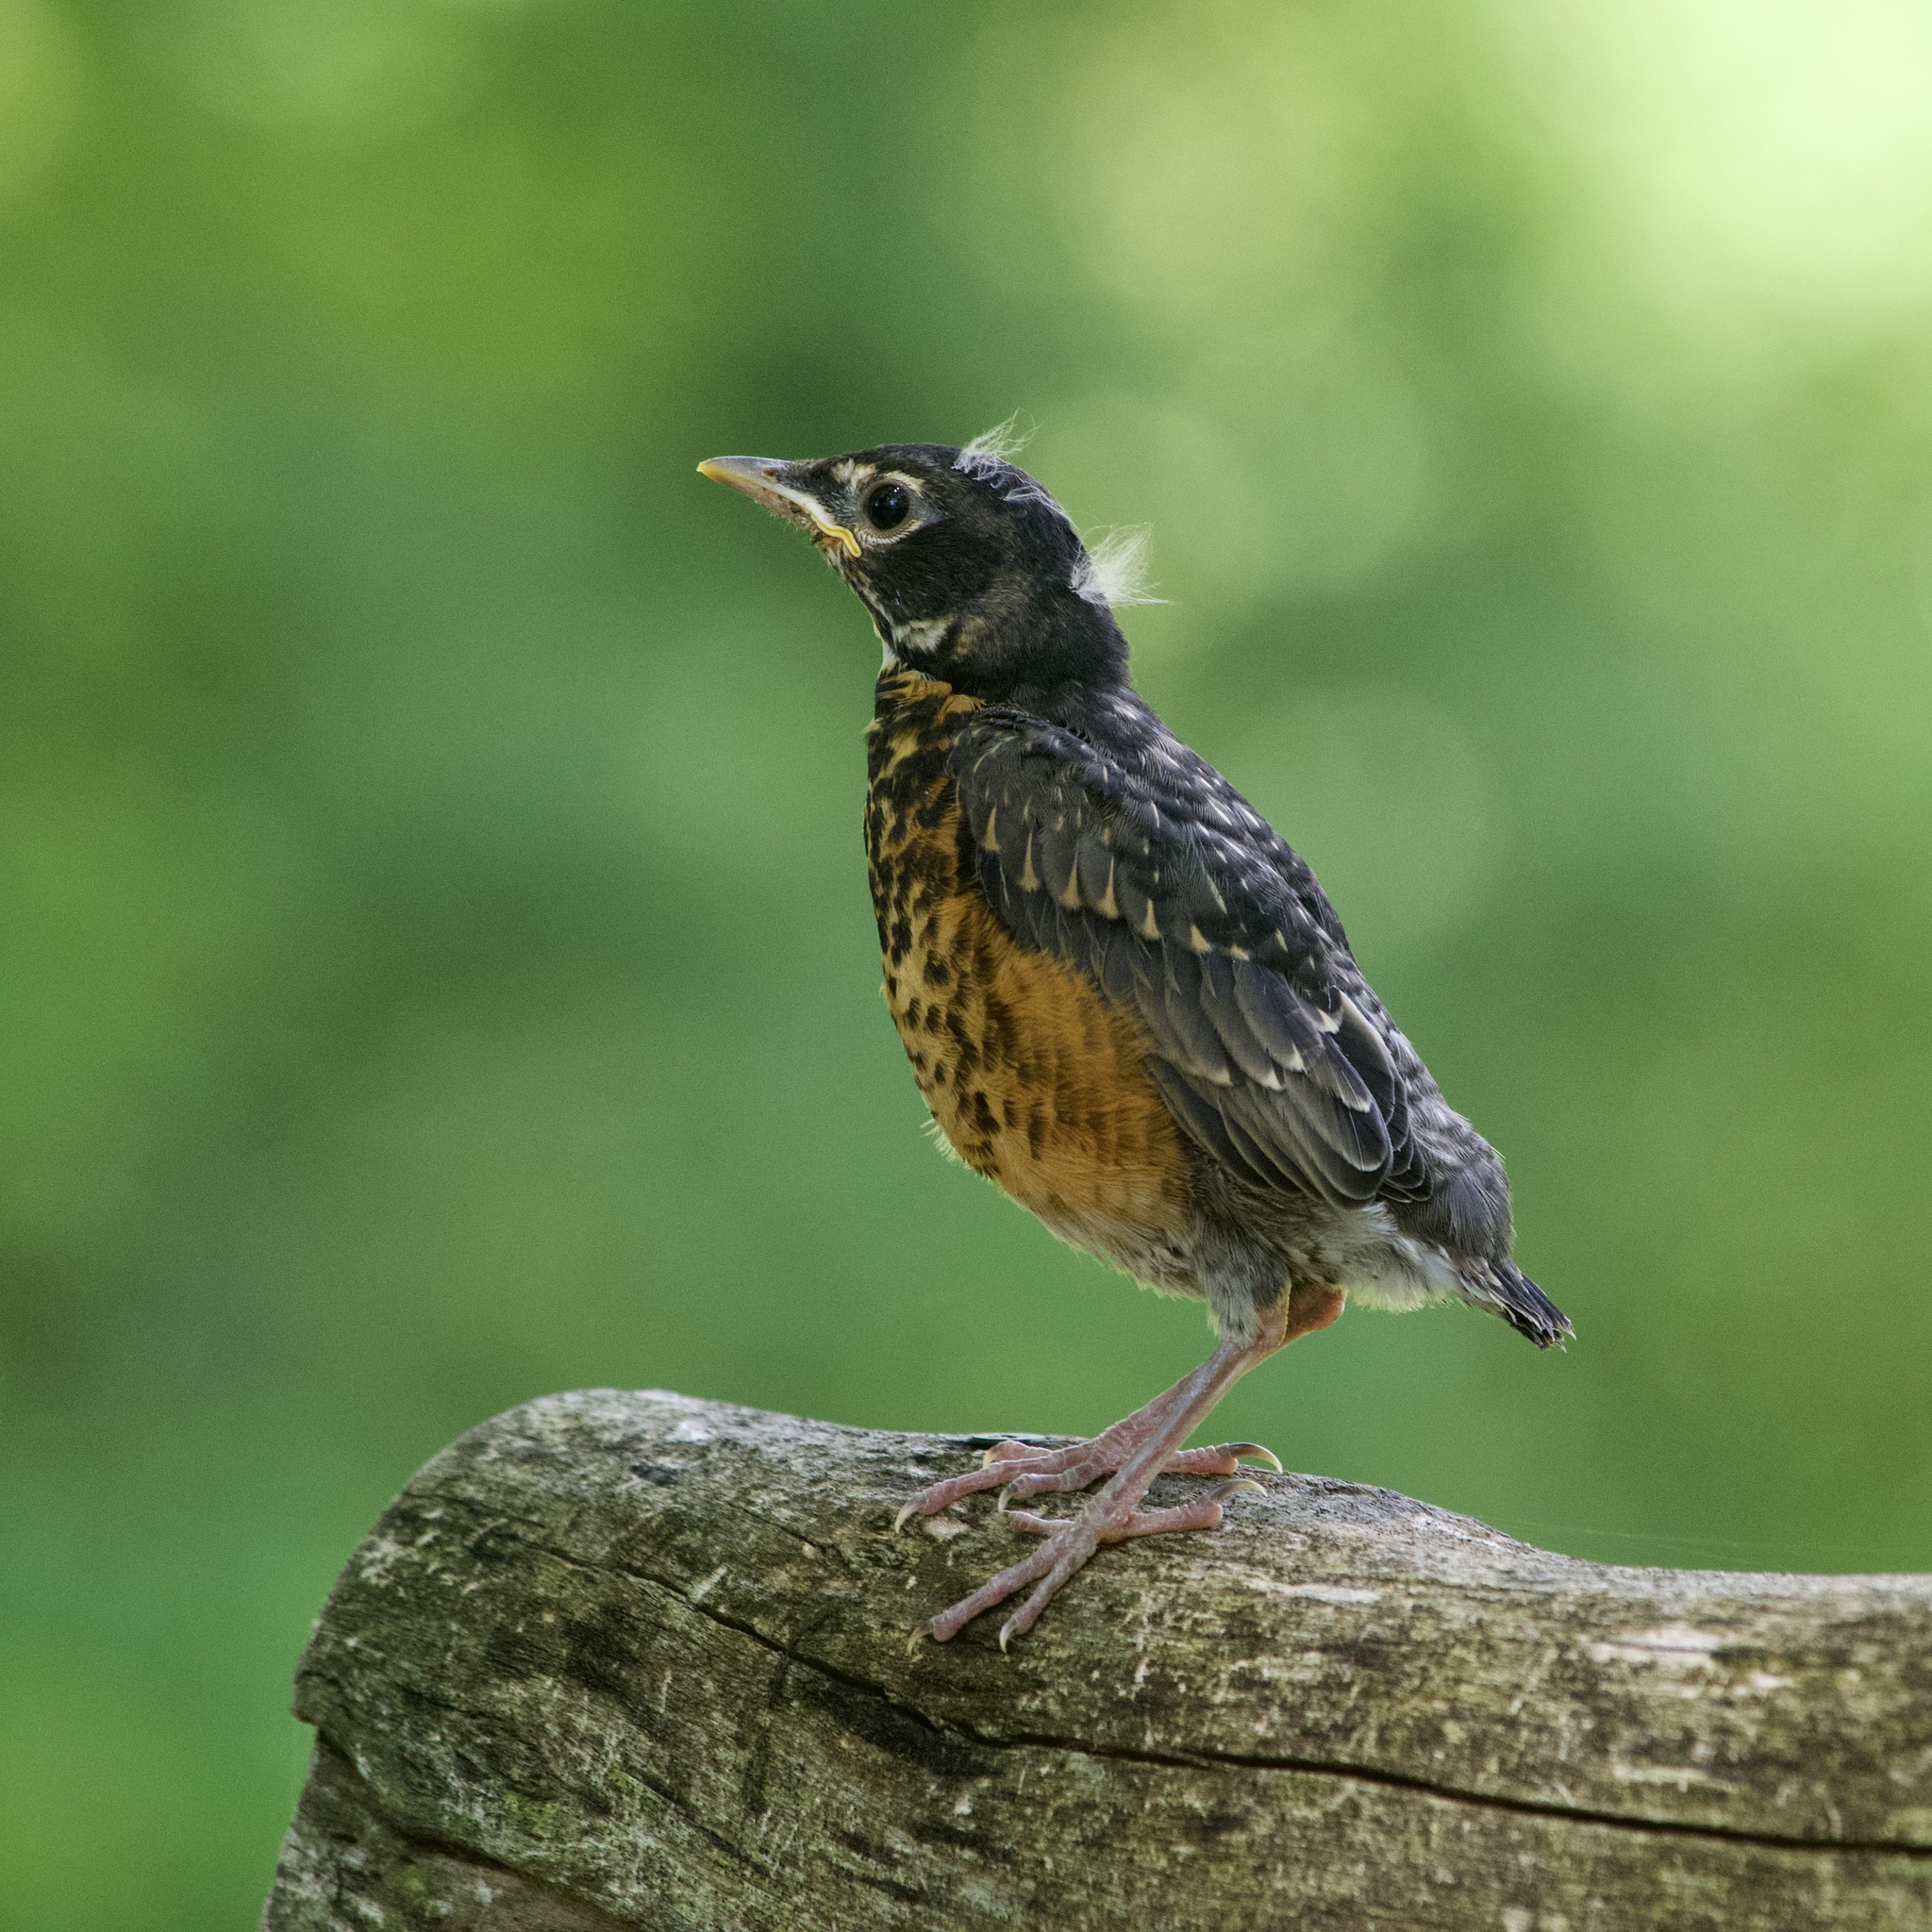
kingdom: Animalia
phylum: Chordata
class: Aves
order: Passeriformes
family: Turdidae
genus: Turdus
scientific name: Turdus migratorius
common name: American robin
